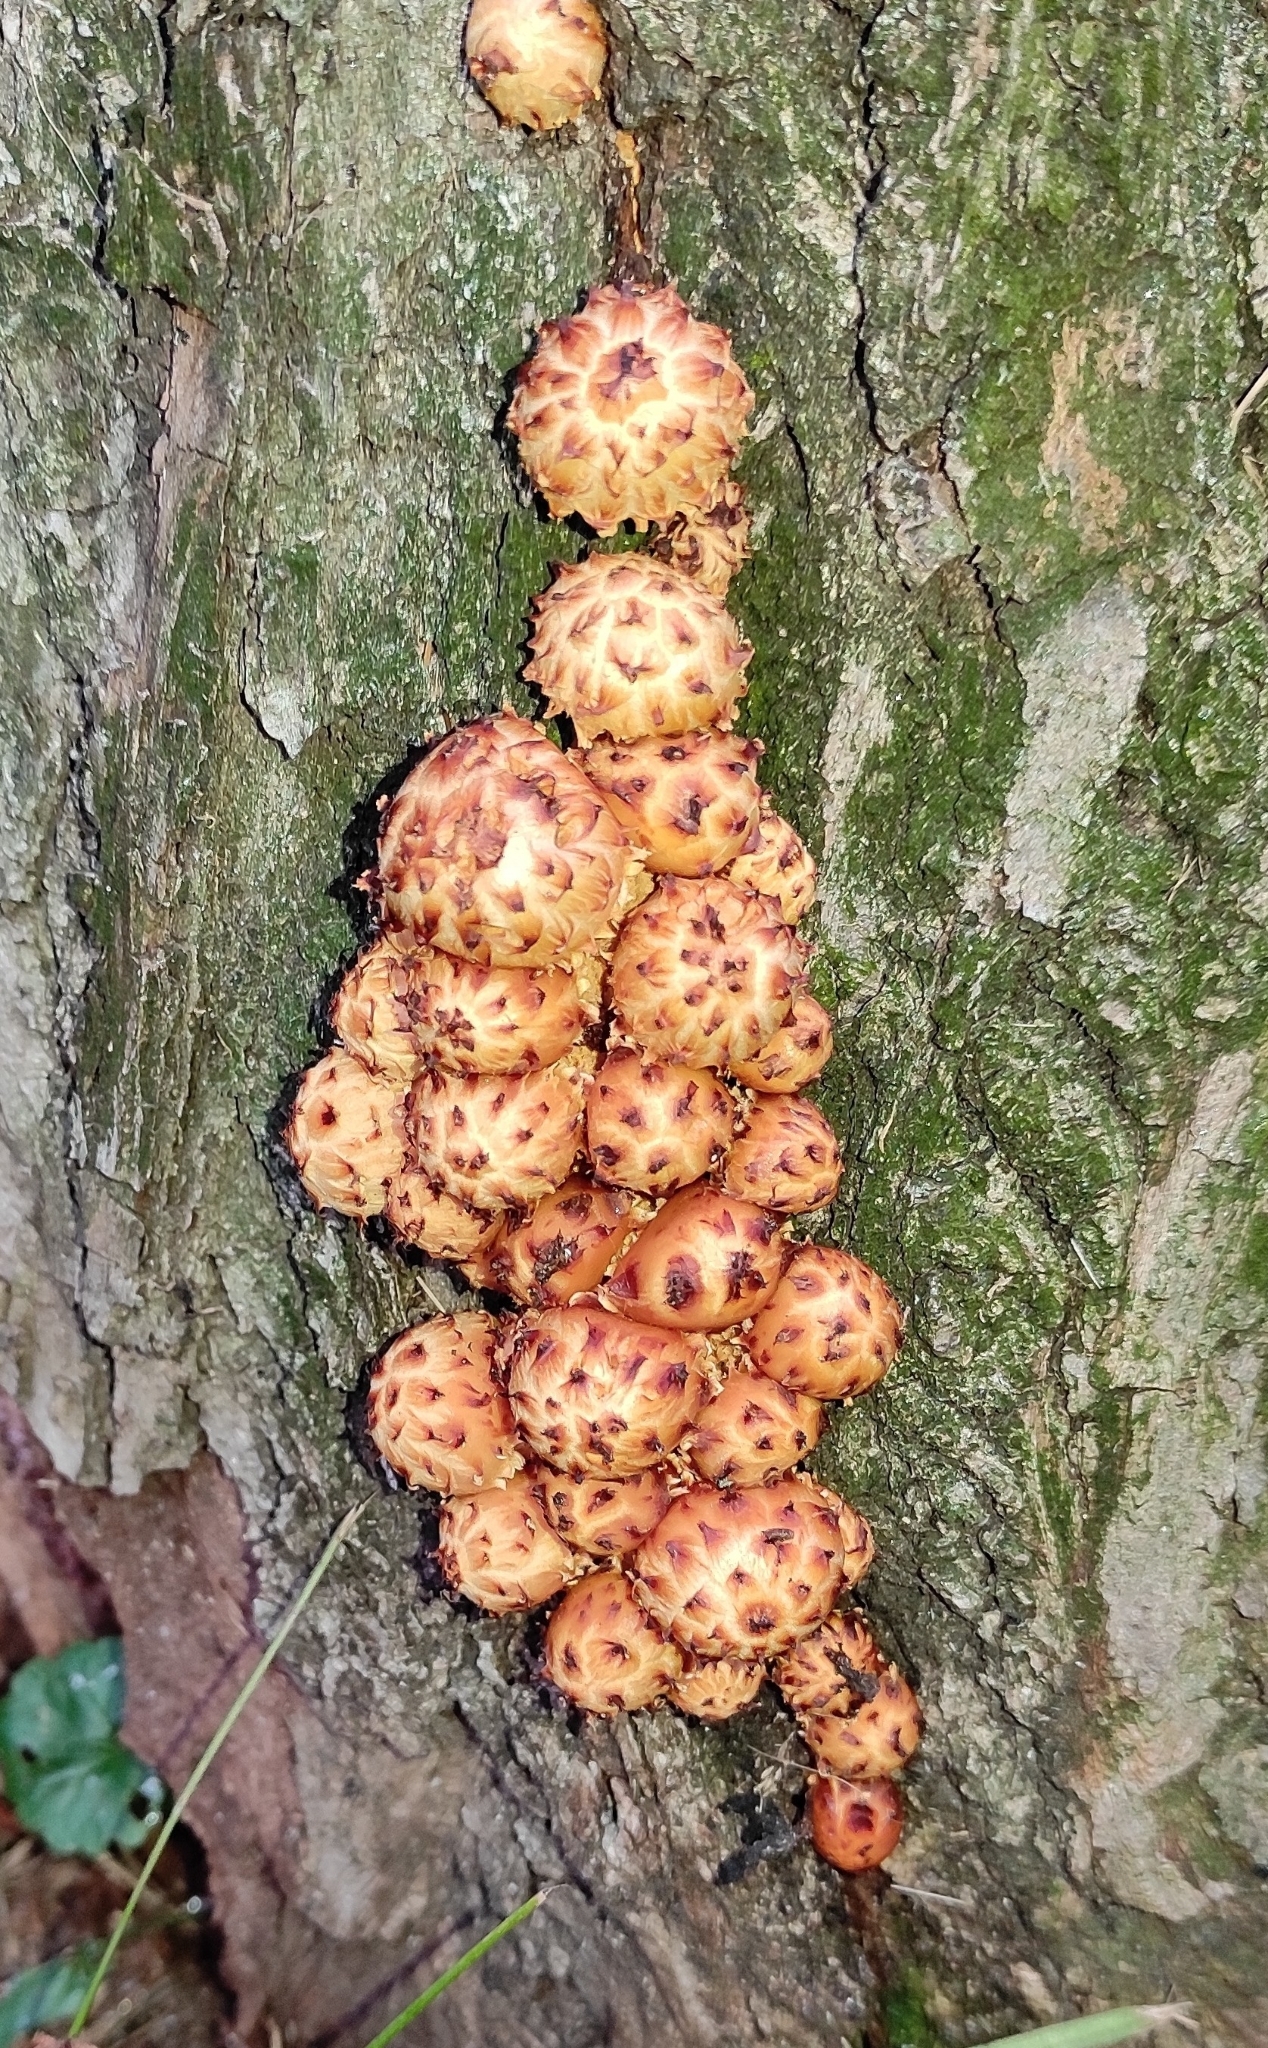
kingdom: Fungi
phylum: Basidiomycota
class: Agaricomycetes
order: Agaricales
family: Strophariaceae
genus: Pholiota
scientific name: Pholiota aurivella
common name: Golden scalycap
